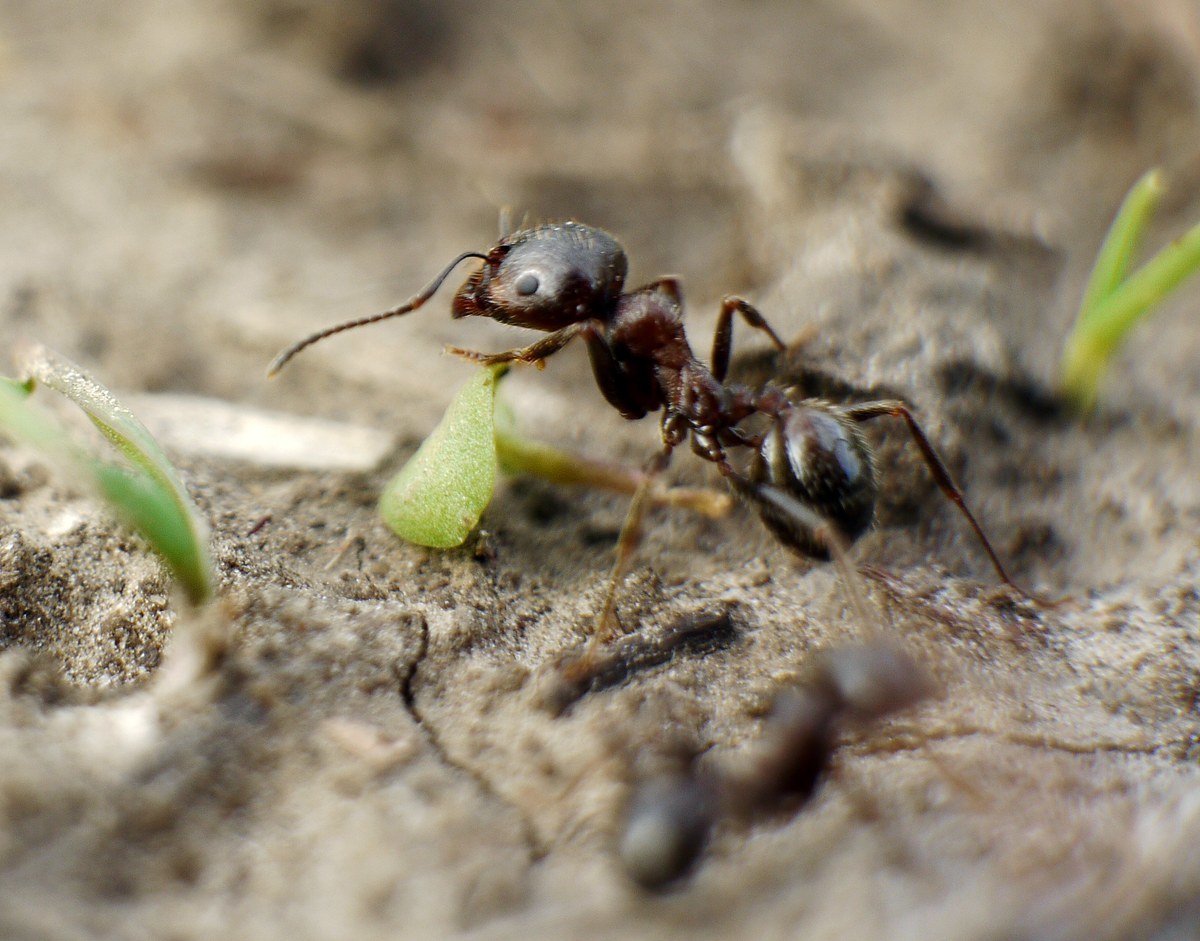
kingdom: Animalia
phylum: Arthropoda
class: Insecta
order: Hymenoptera
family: Formicidae
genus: Messor
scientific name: Messor structor
